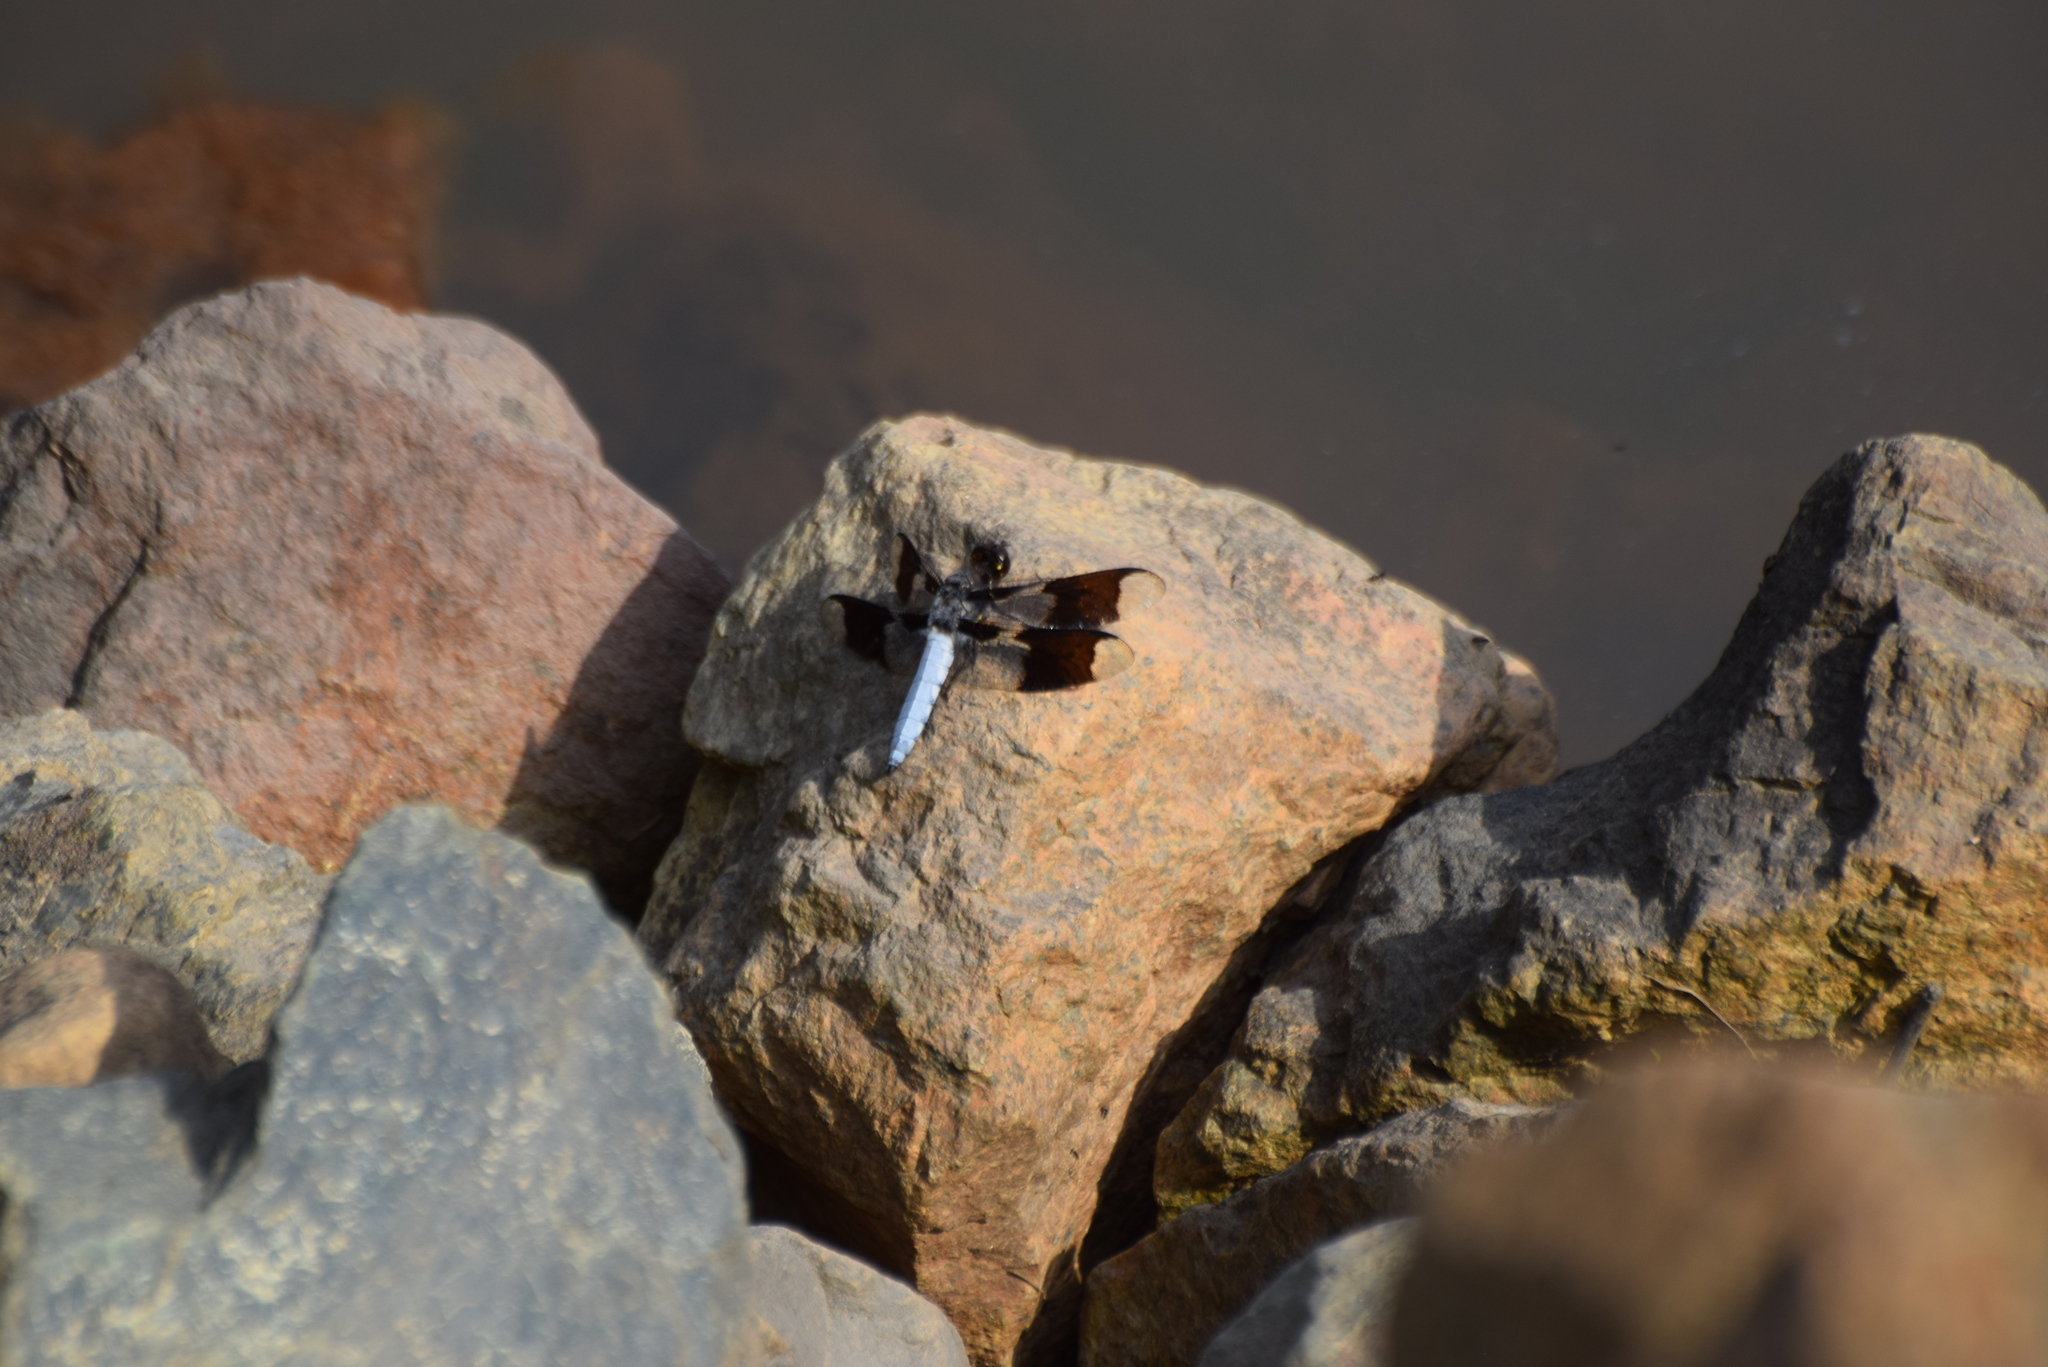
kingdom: Animalia
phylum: Arthropoda
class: Insecta
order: Odonata
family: Libellulidae
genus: Plathemis
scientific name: Plathemis lydia
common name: Common whitetail
